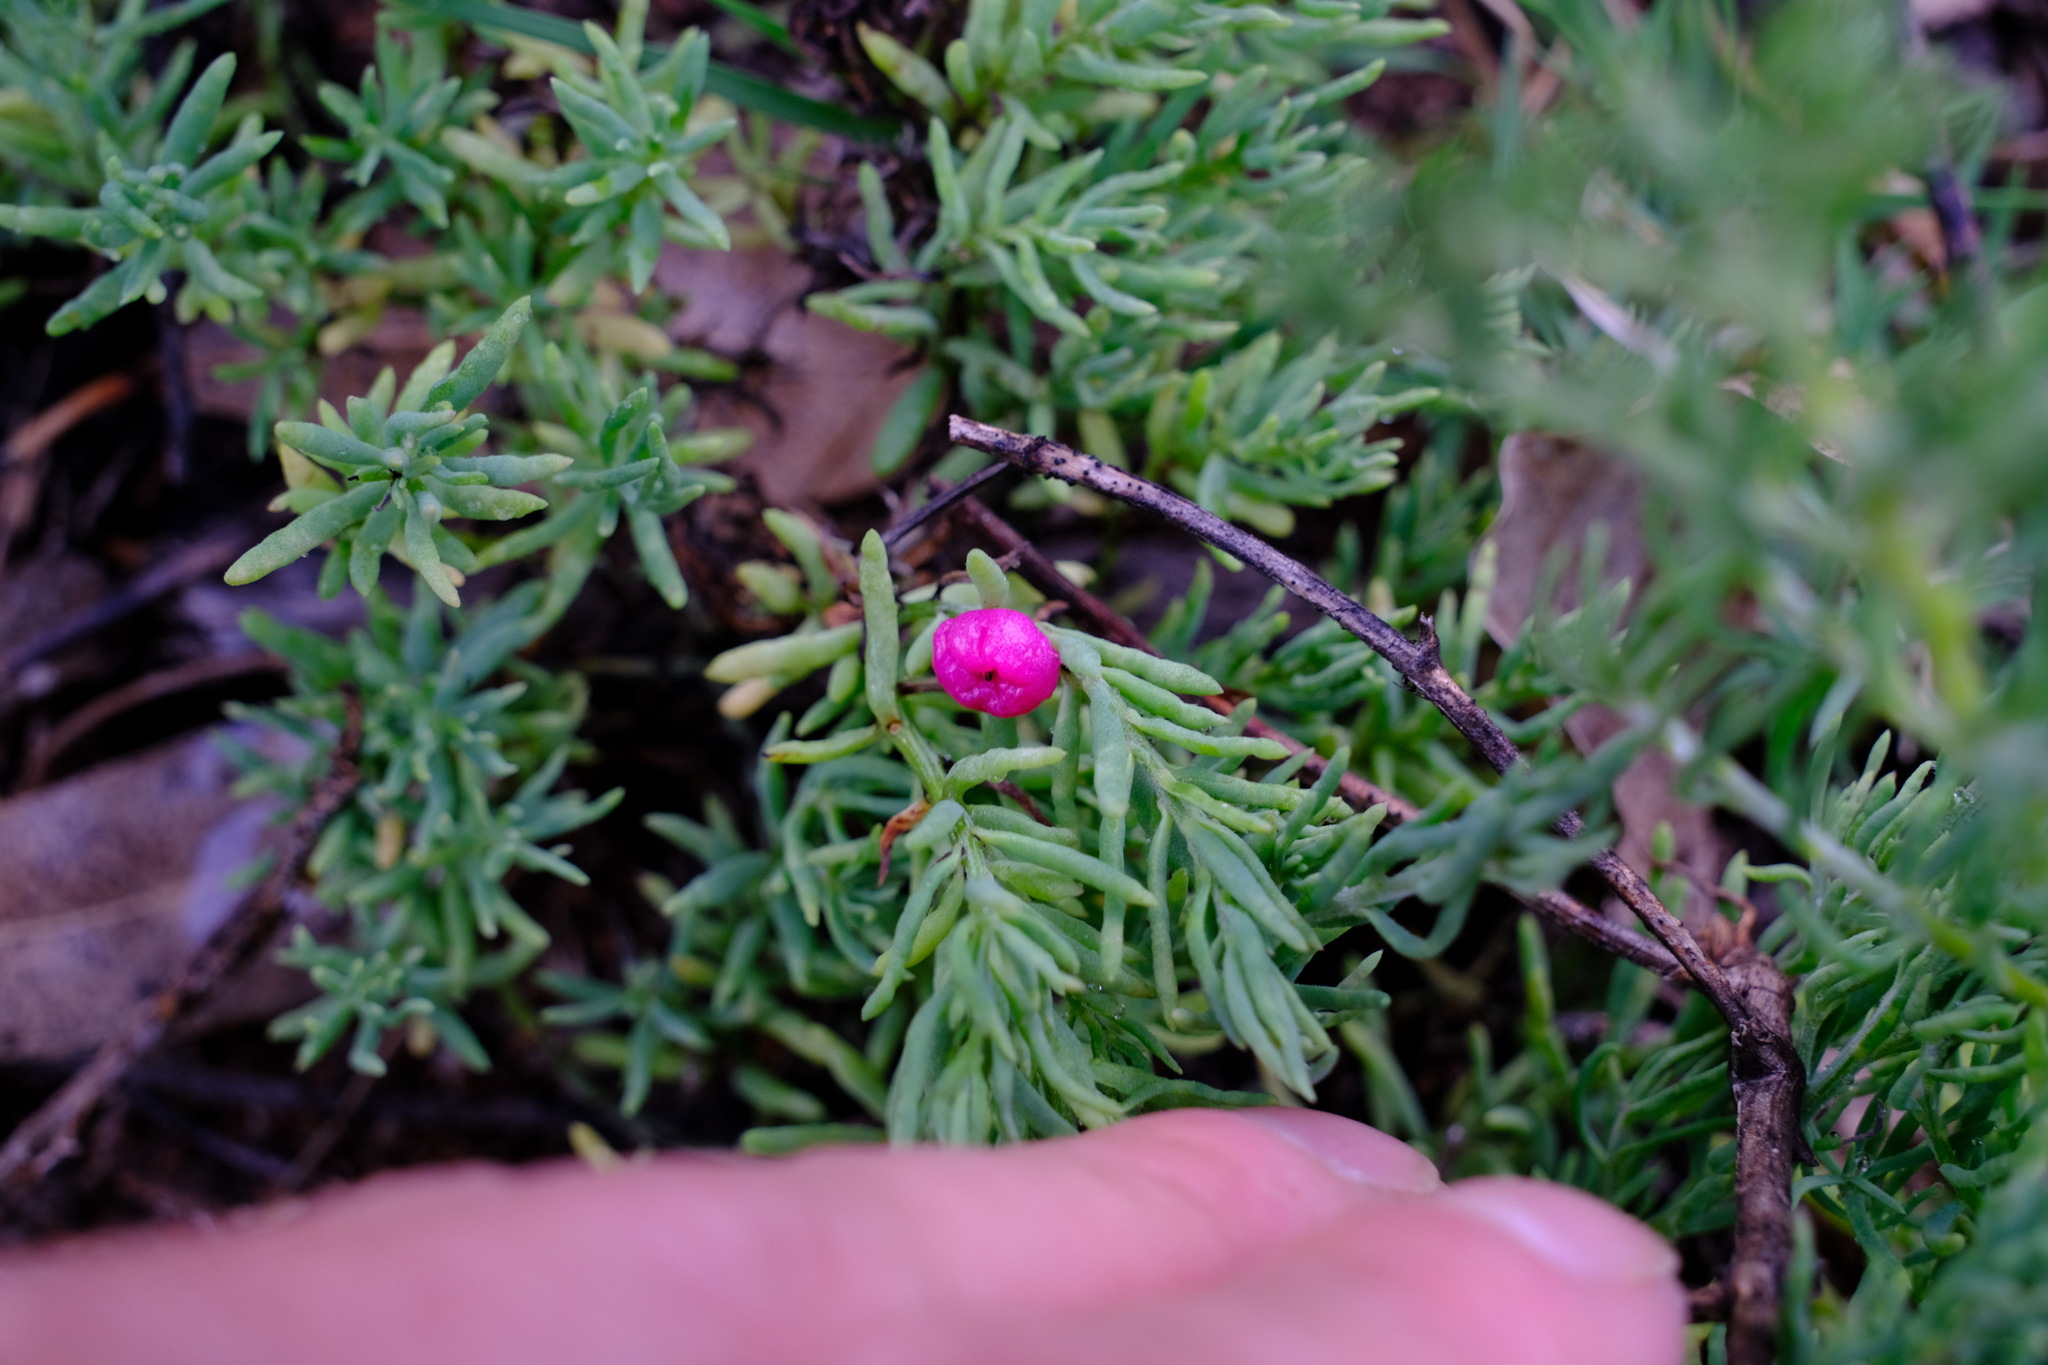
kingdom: Plantae
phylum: Tracheophyta
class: Magnoliopsida
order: Caryophyllales
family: Amaranthaceae
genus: Enchylaena
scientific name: Enchylaena tomentosa
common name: Ruby saltbush
